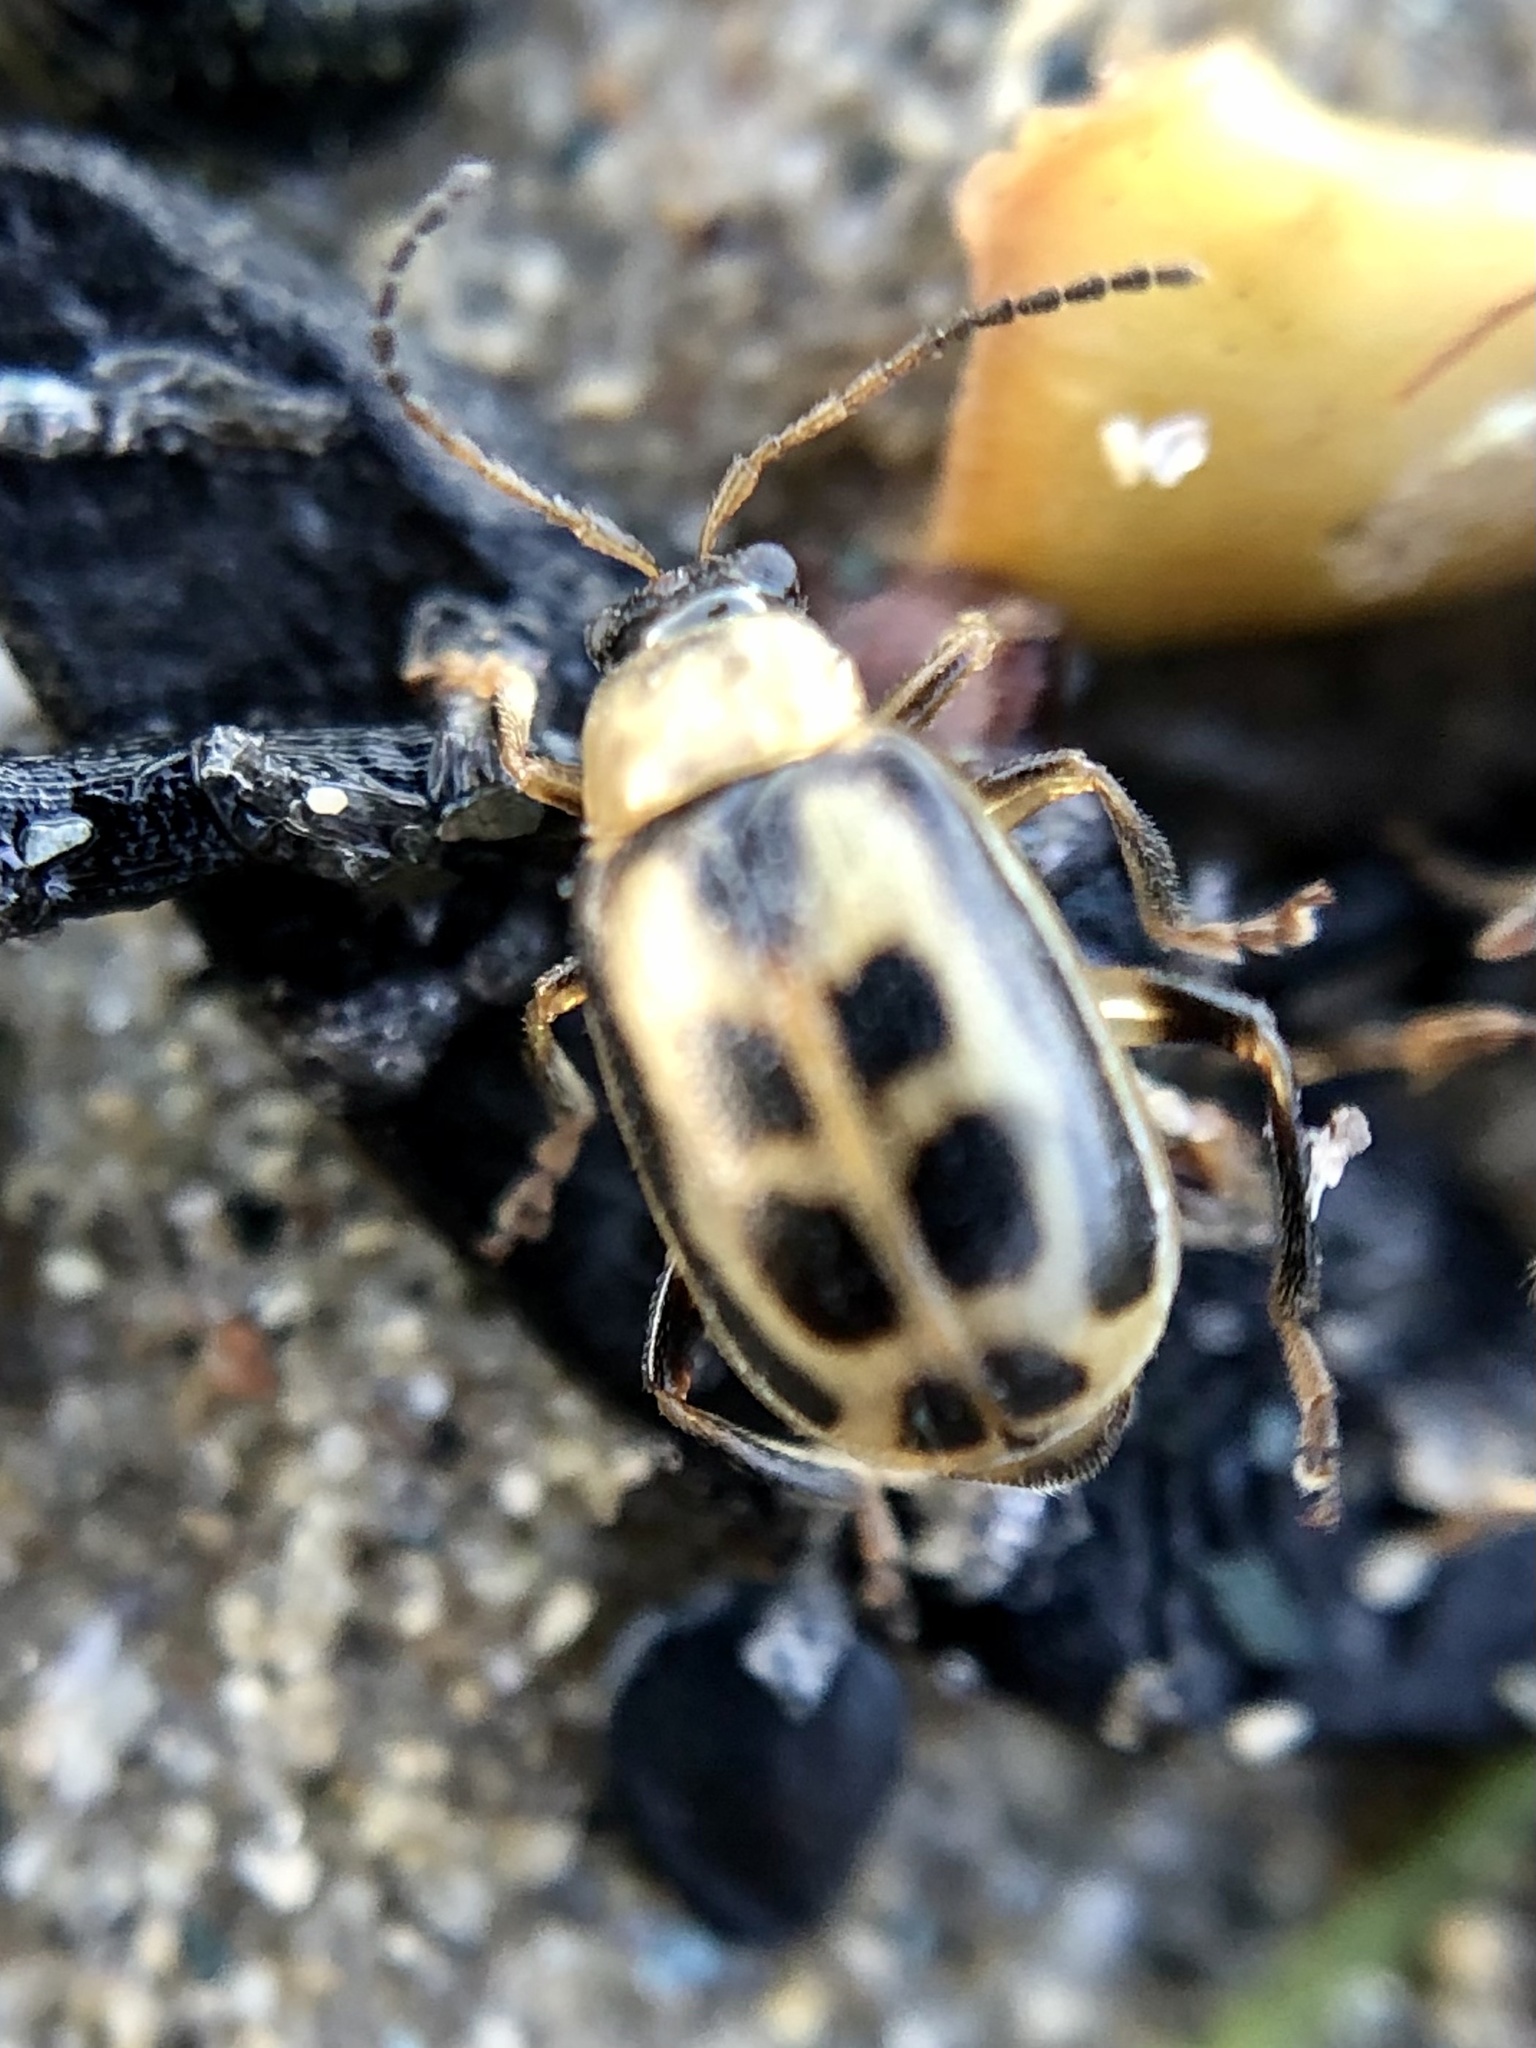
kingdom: Animalia
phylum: Arthropoda
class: Insecta
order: Coleoptera
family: Chrysomelidae
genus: Cerotoma
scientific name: Cerotoma trifurcata
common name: Bean leaf beetle
